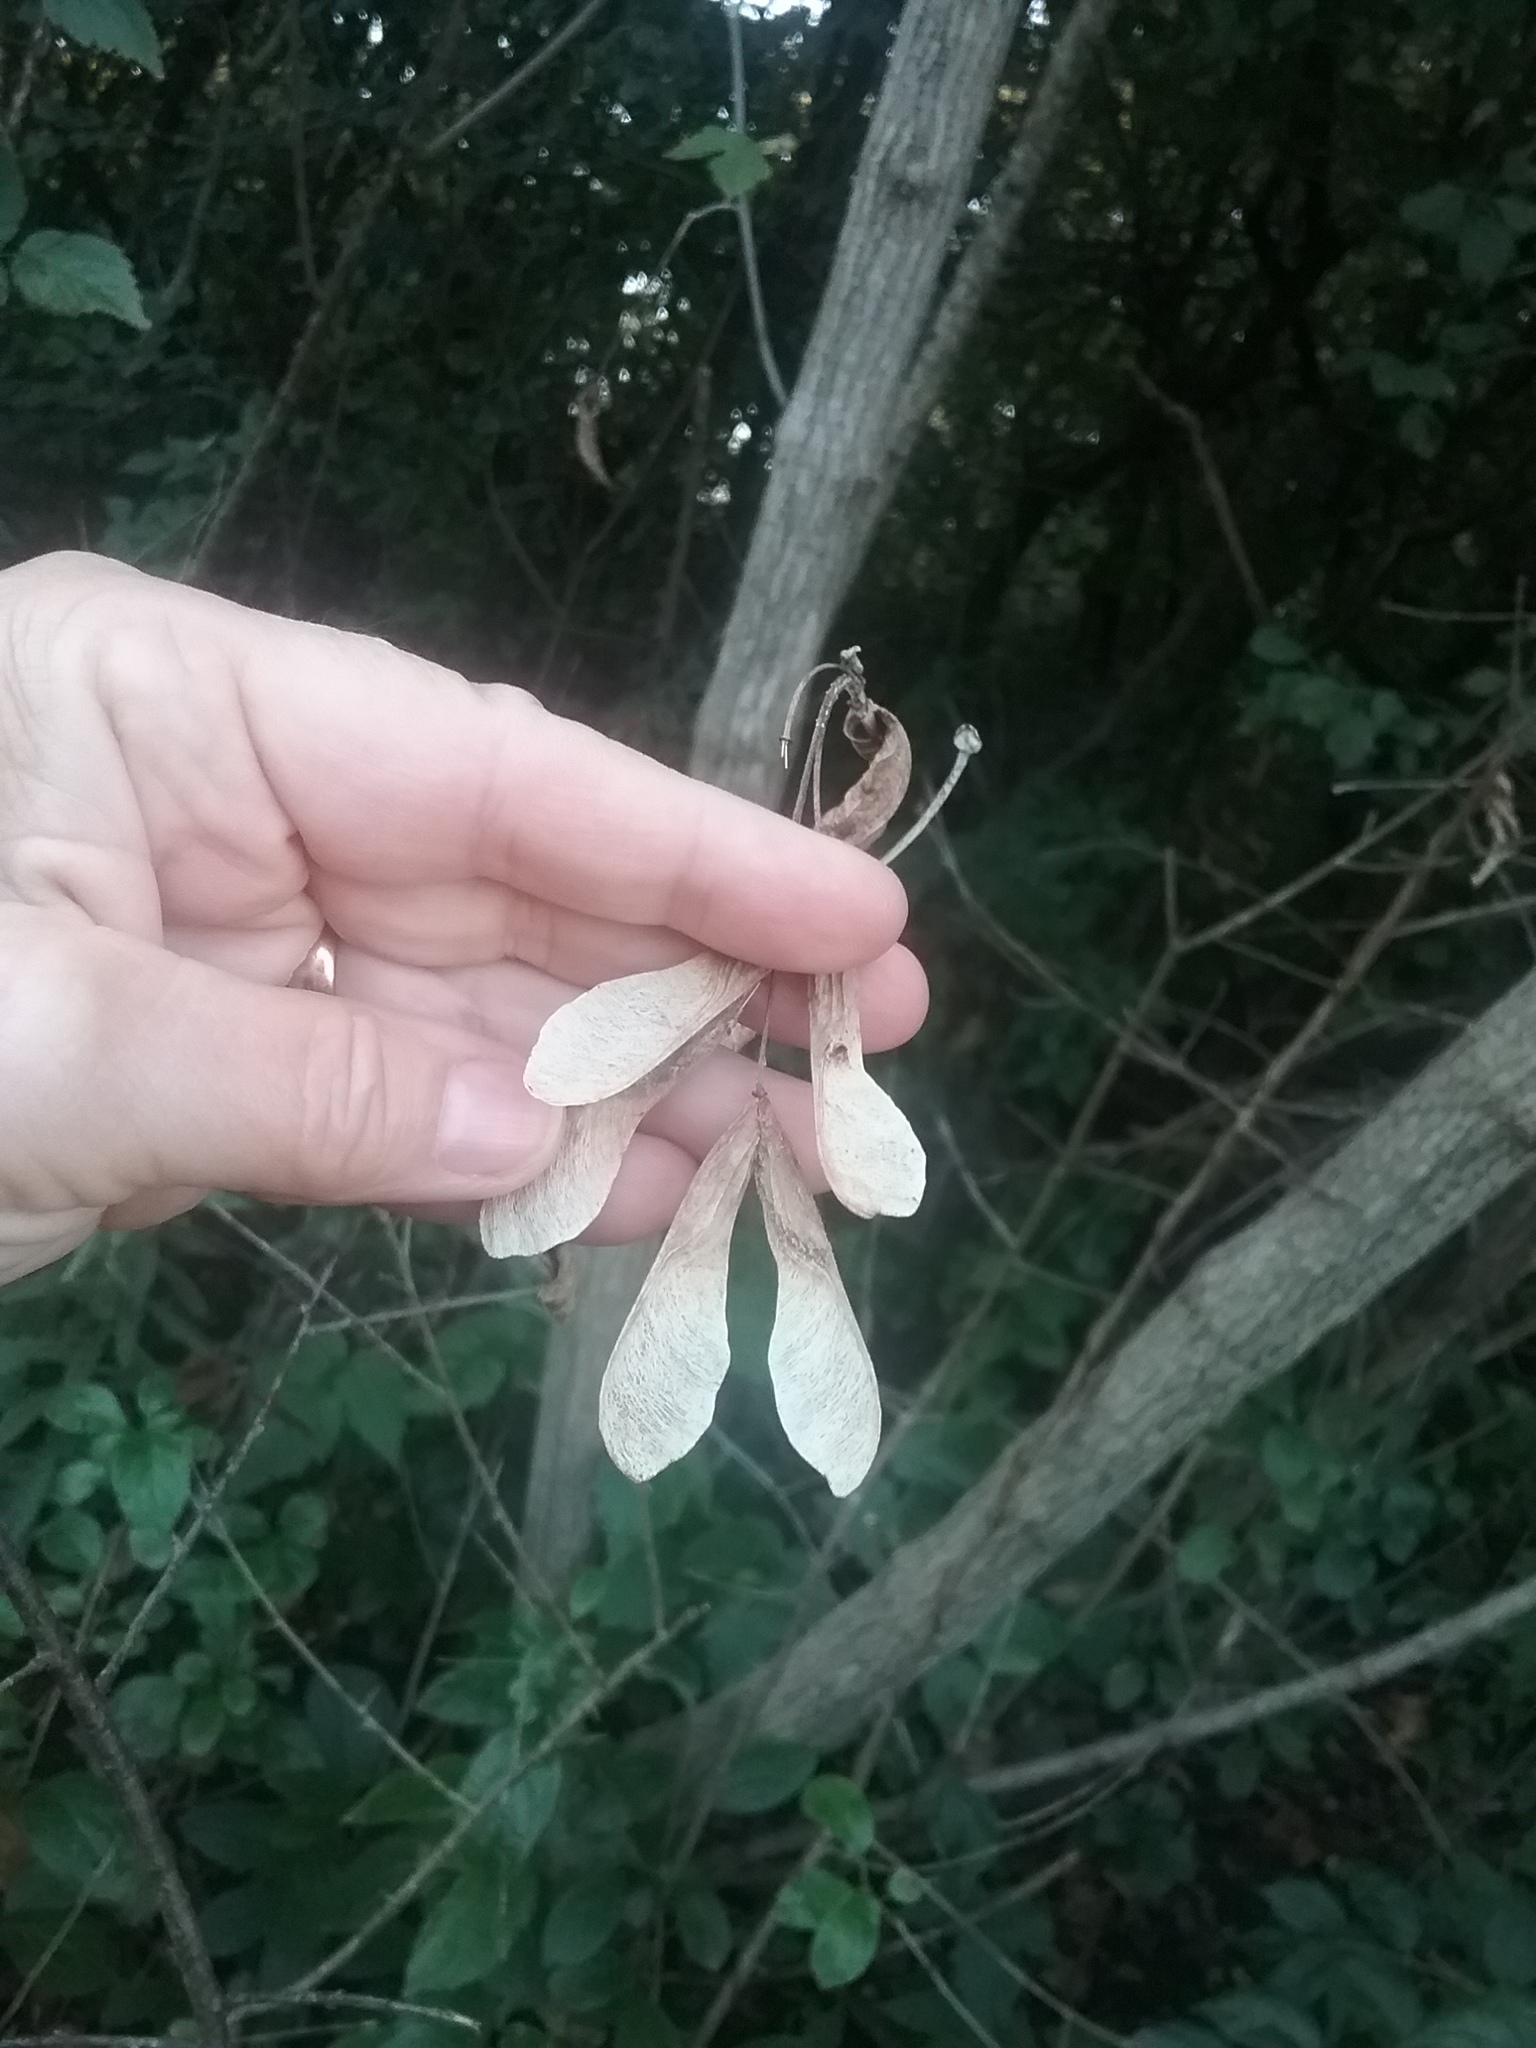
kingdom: Plantae
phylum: Tracheophyta
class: Magnoliopsida
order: Sapindales
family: Sapindaceae
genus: Acer
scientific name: Acer negundo
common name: Ashleaf maple
